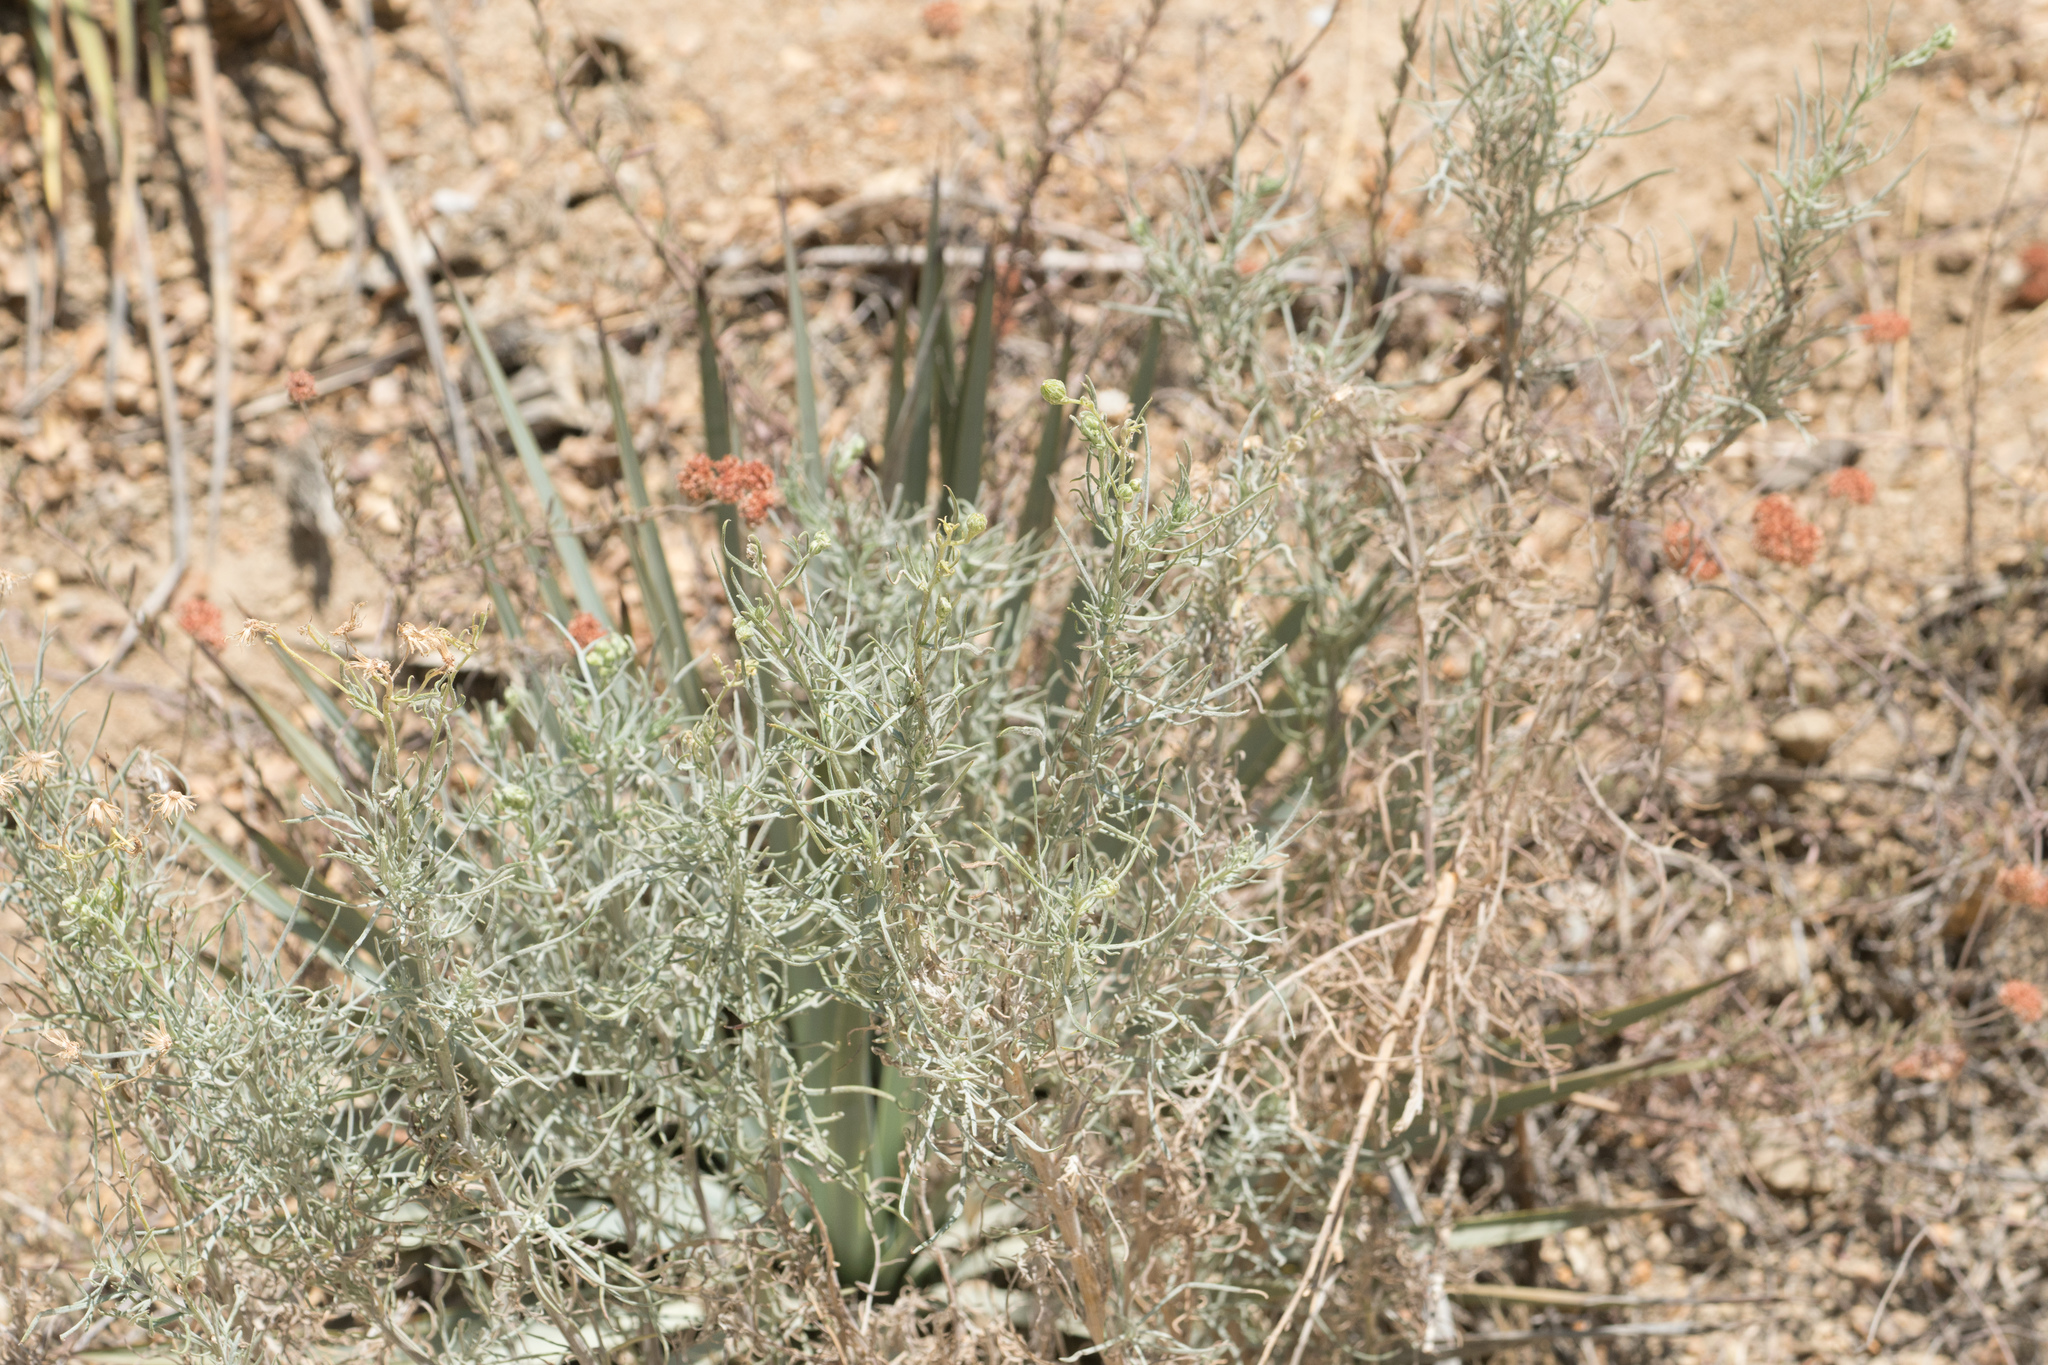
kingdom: Plantae
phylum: Tracheophyta
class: Magnoliopsida
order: Asterales
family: Asteraceae
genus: Senecio
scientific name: Senecio flaccidus
